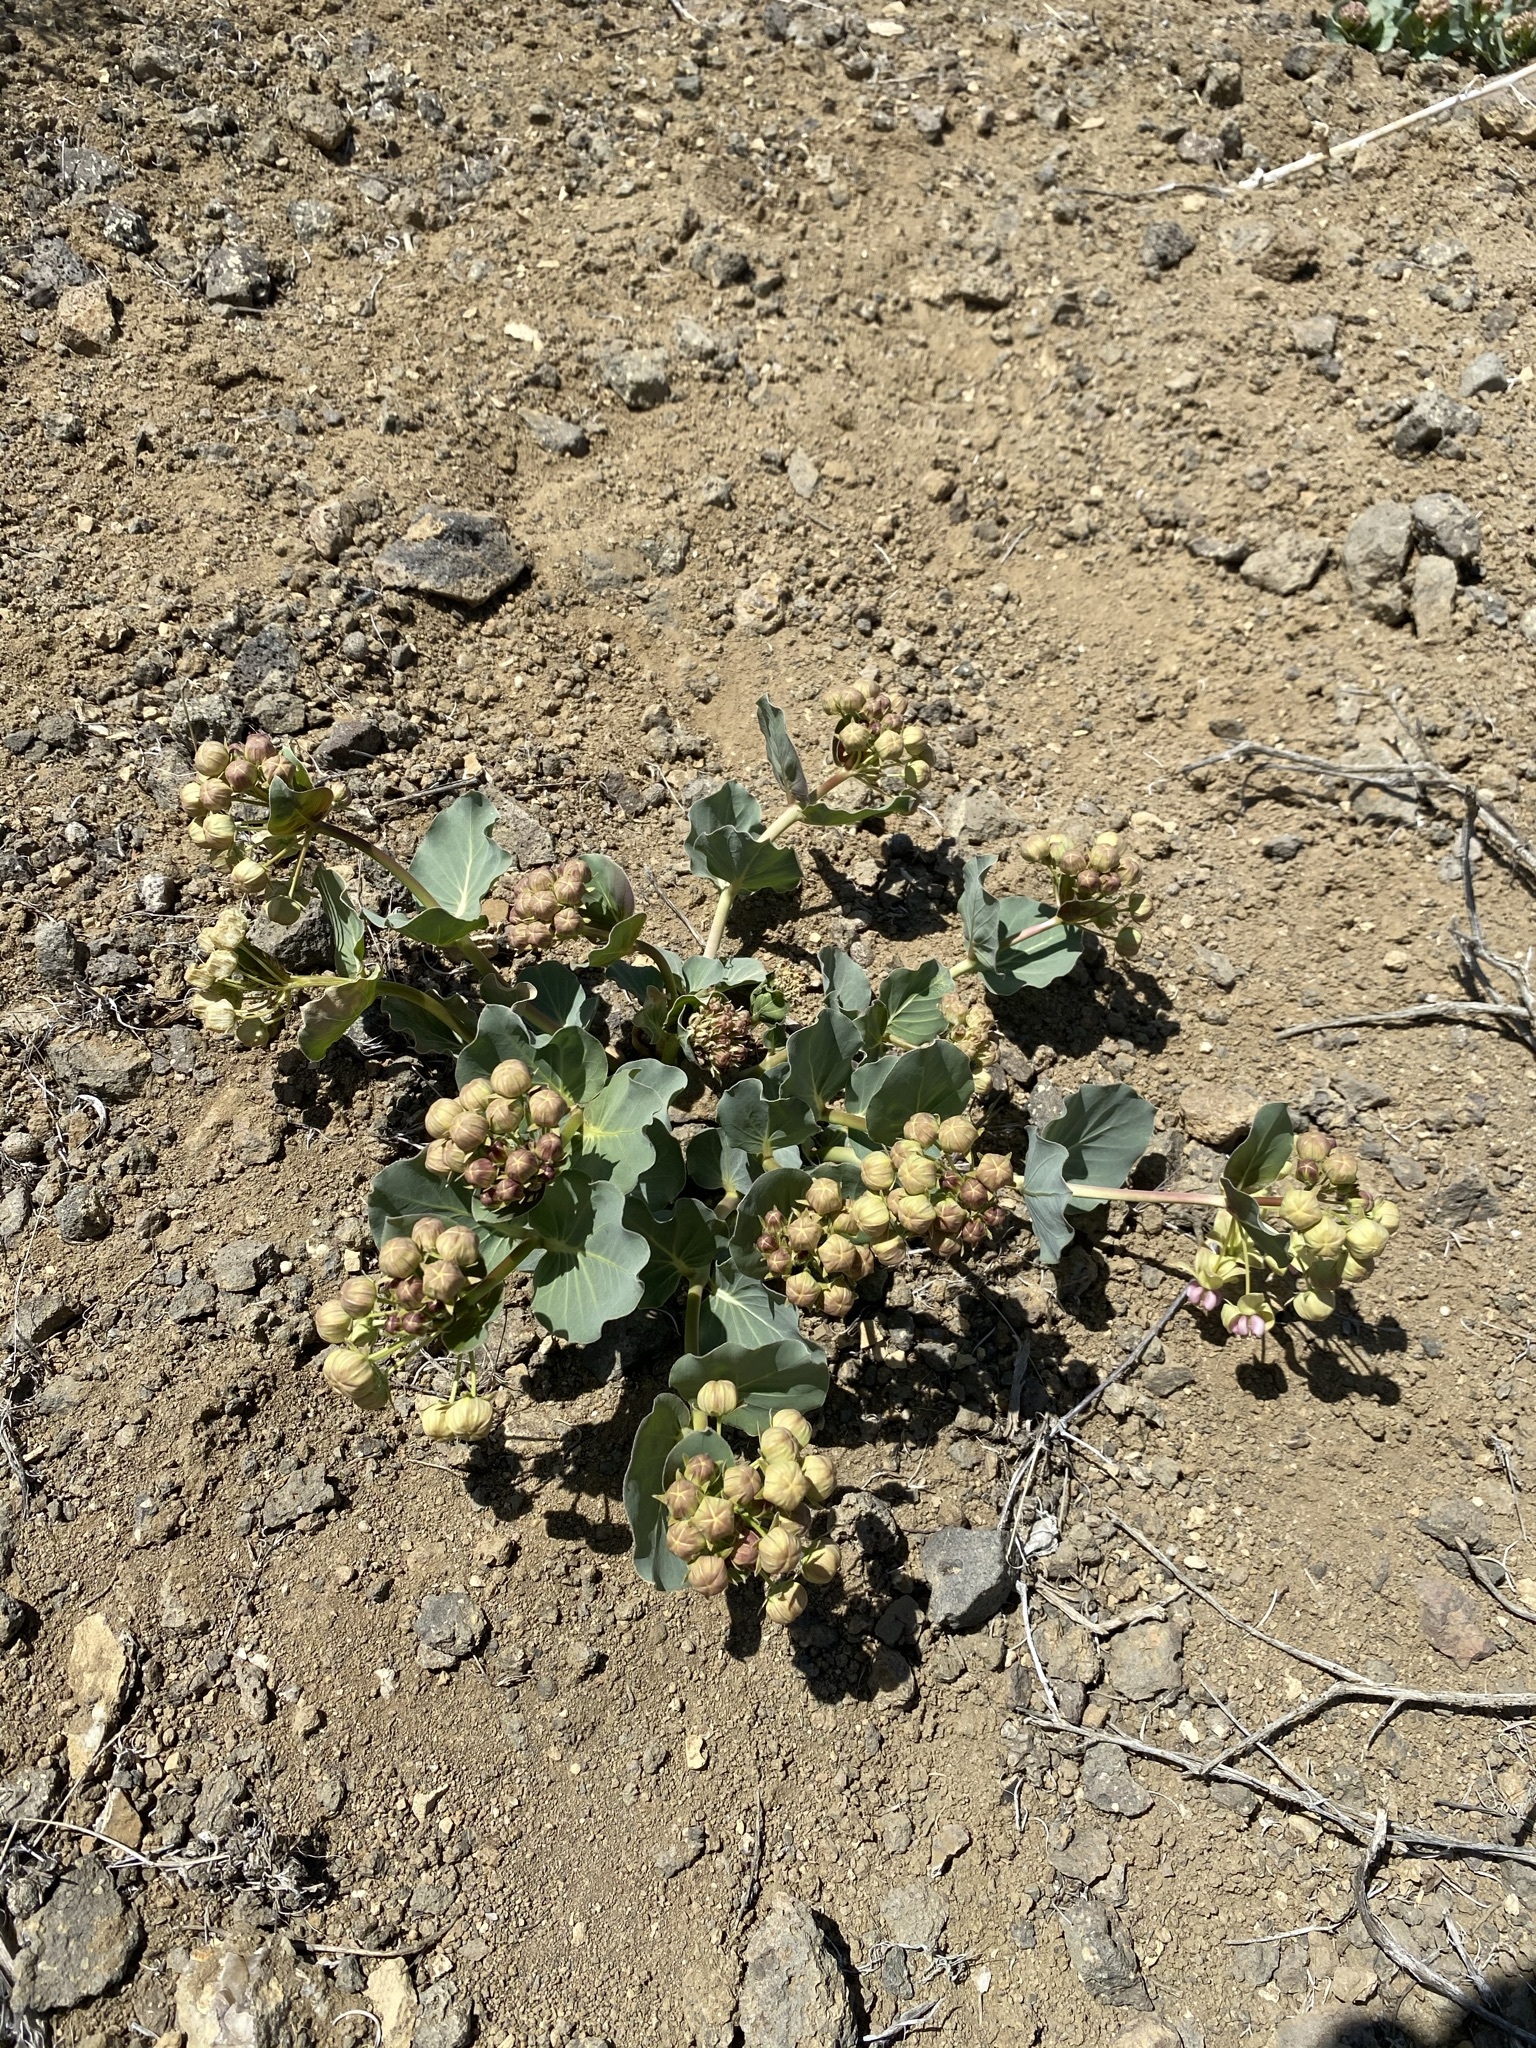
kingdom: Plantae
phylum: Tracheophyta
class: Magnoliopsida
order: Gentianales
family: Apocynaceae
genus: Asclepias
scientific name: Asclepias cryptoceras
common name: Humboldt mountains milkweed
